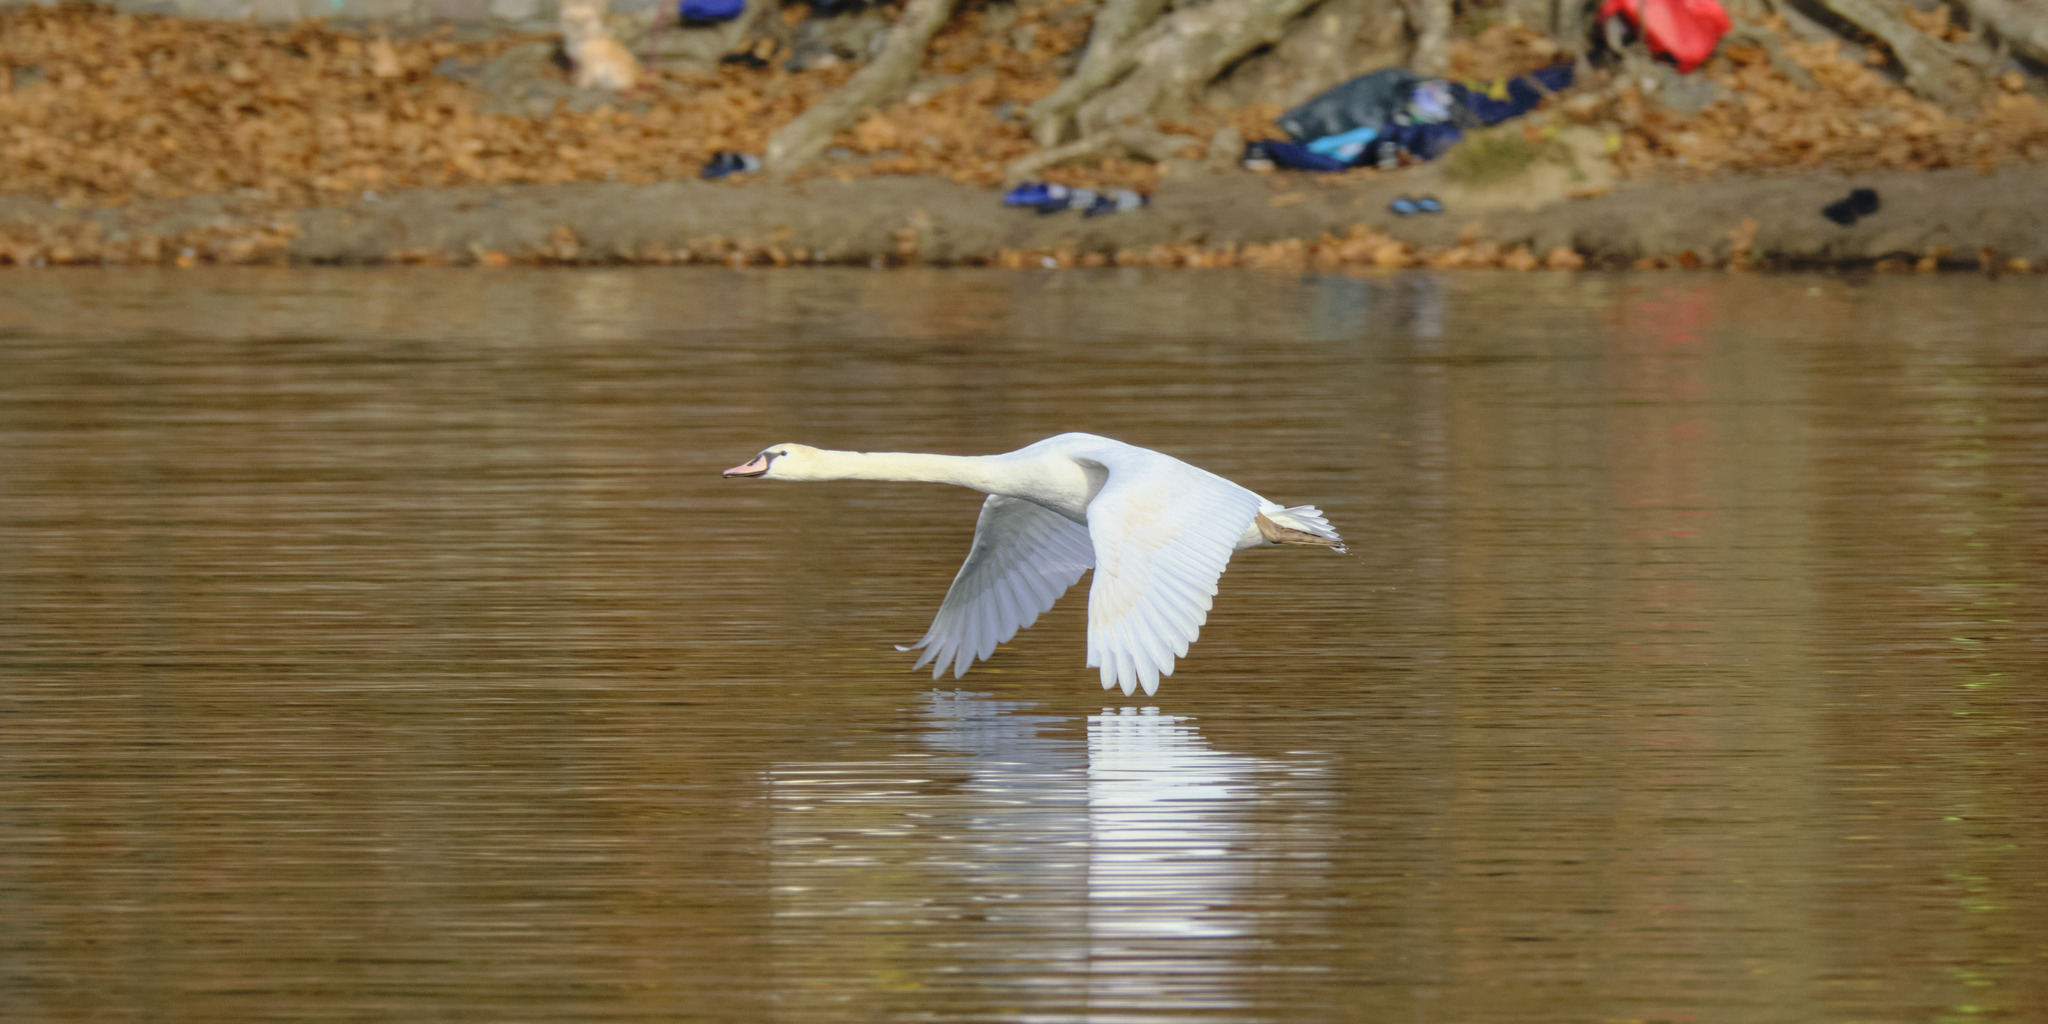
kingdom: Animalia
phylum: Chordata
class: Aves
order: Anseriformes
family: Anatidae
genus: Cygnus
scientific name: Cygnus olor
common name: Mute swan
